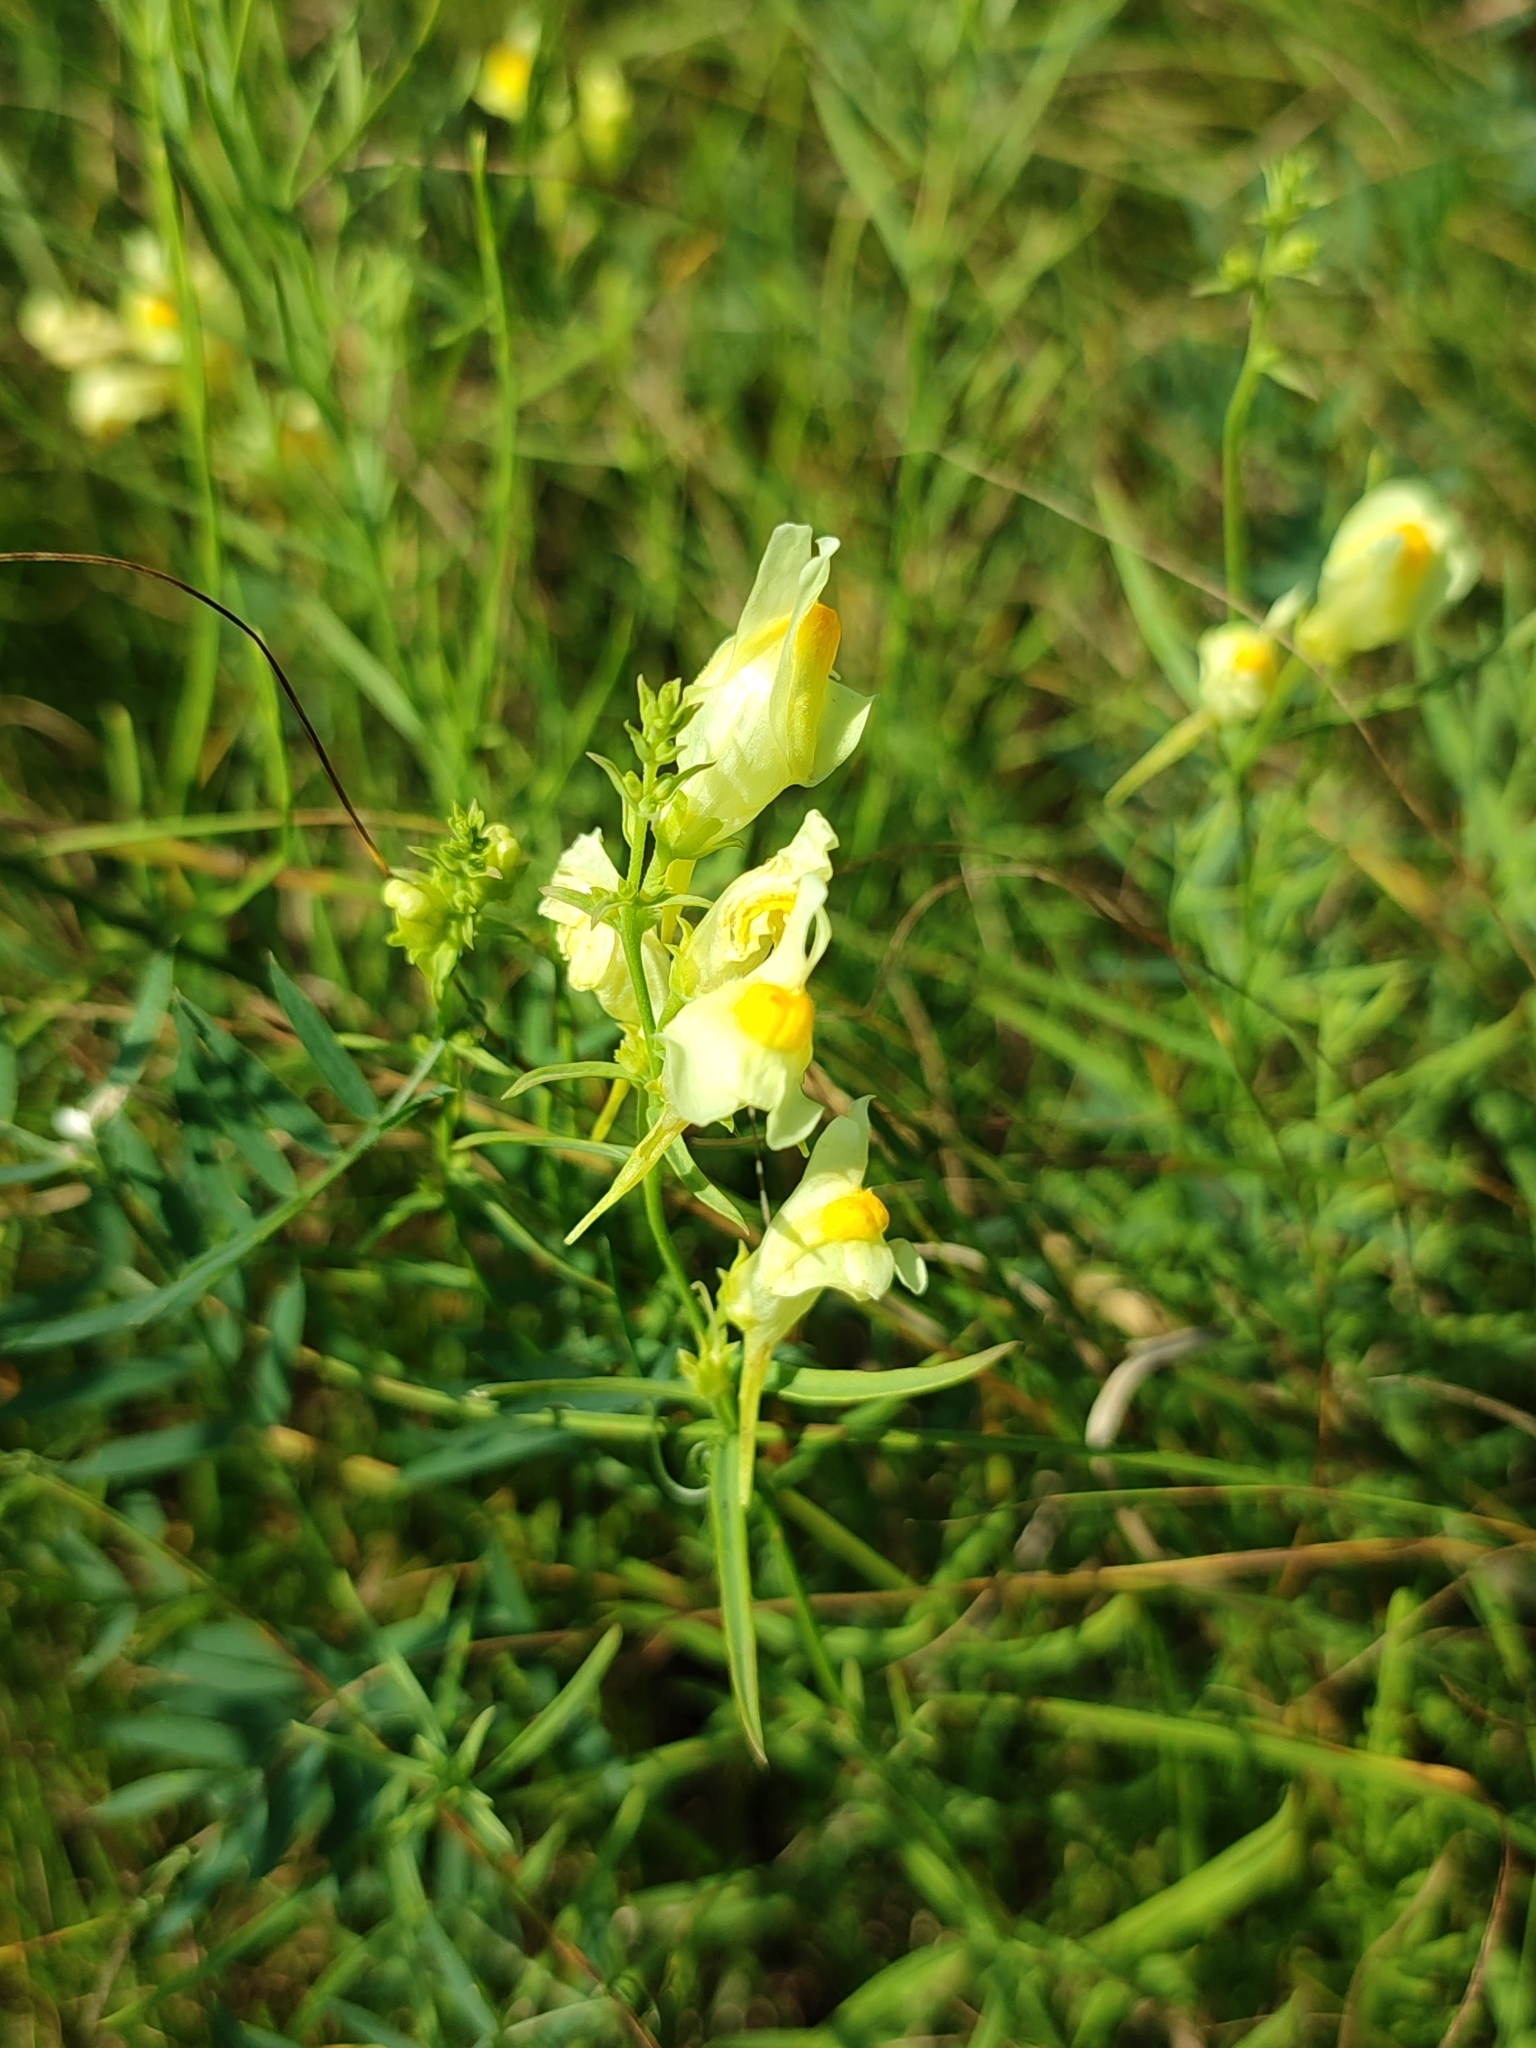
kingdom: Plantae
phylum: Tracheophyta
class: Magnoliopsida
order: Lamiales
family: Plantaginaceae
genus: Linaria
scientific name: Linaria vulgaris
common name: Butter and eggs
